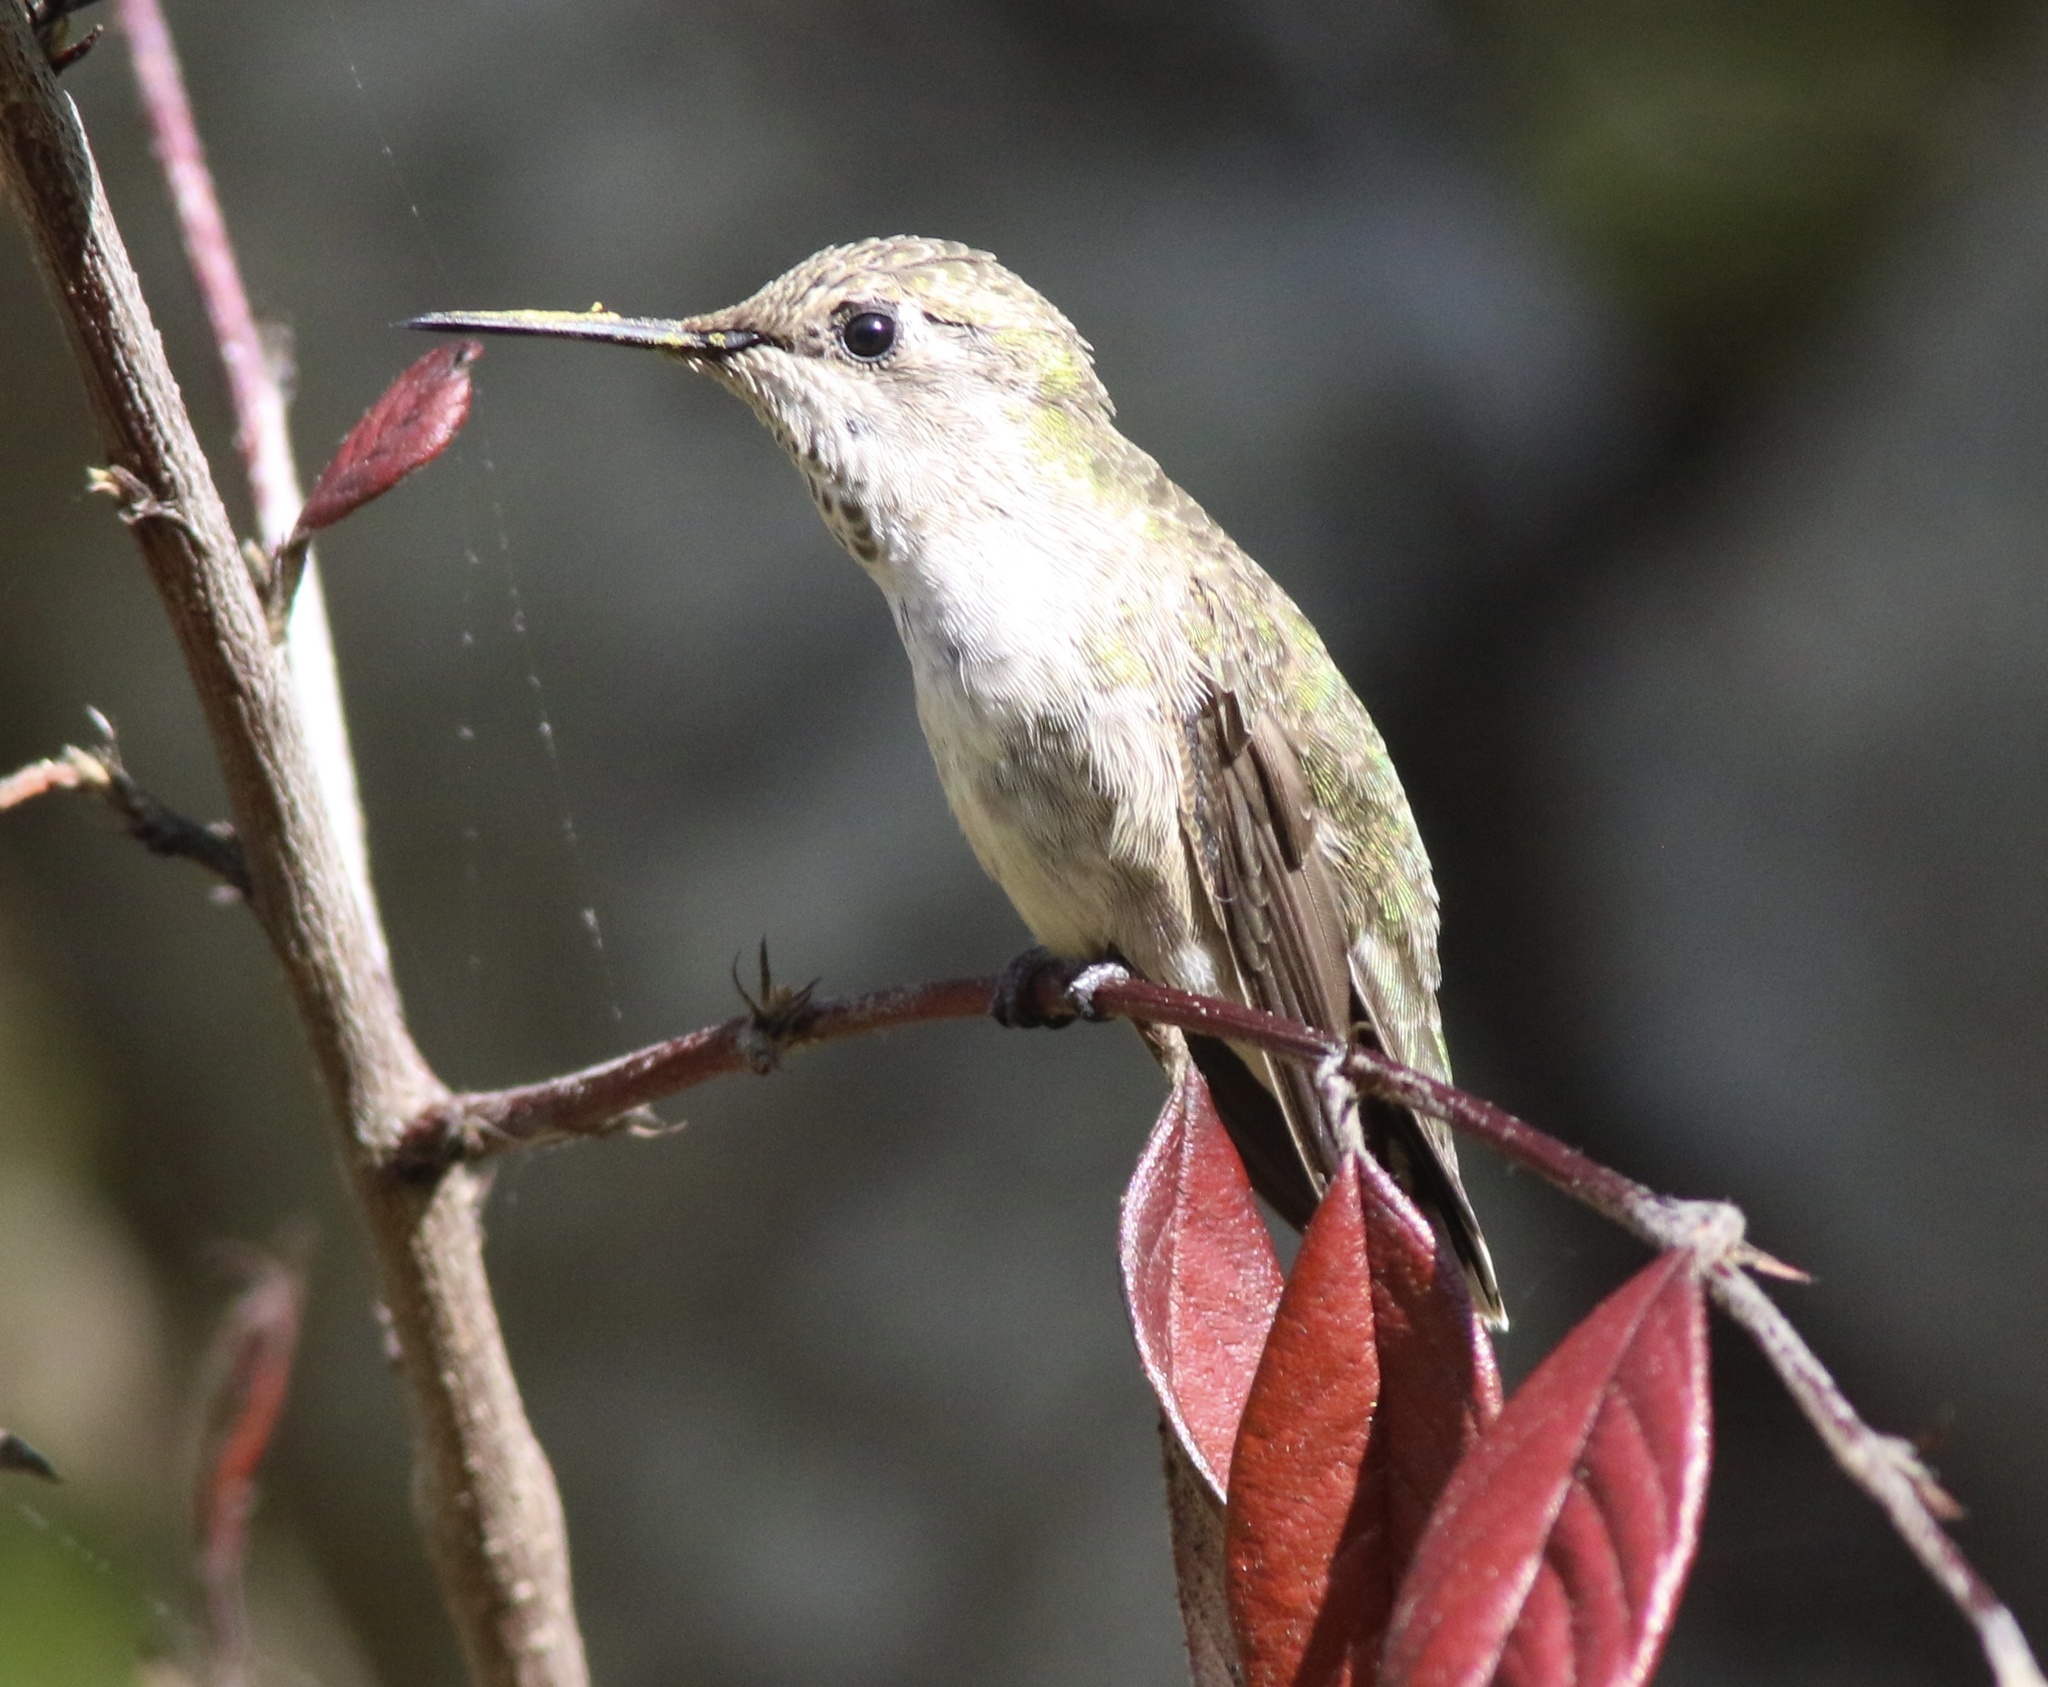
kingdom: Animalia
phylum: Chordata
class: Aves
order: Apodiformes
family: Trochilidae
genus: Calypte
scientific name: Calypte anna
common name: Anna's hummingbird
